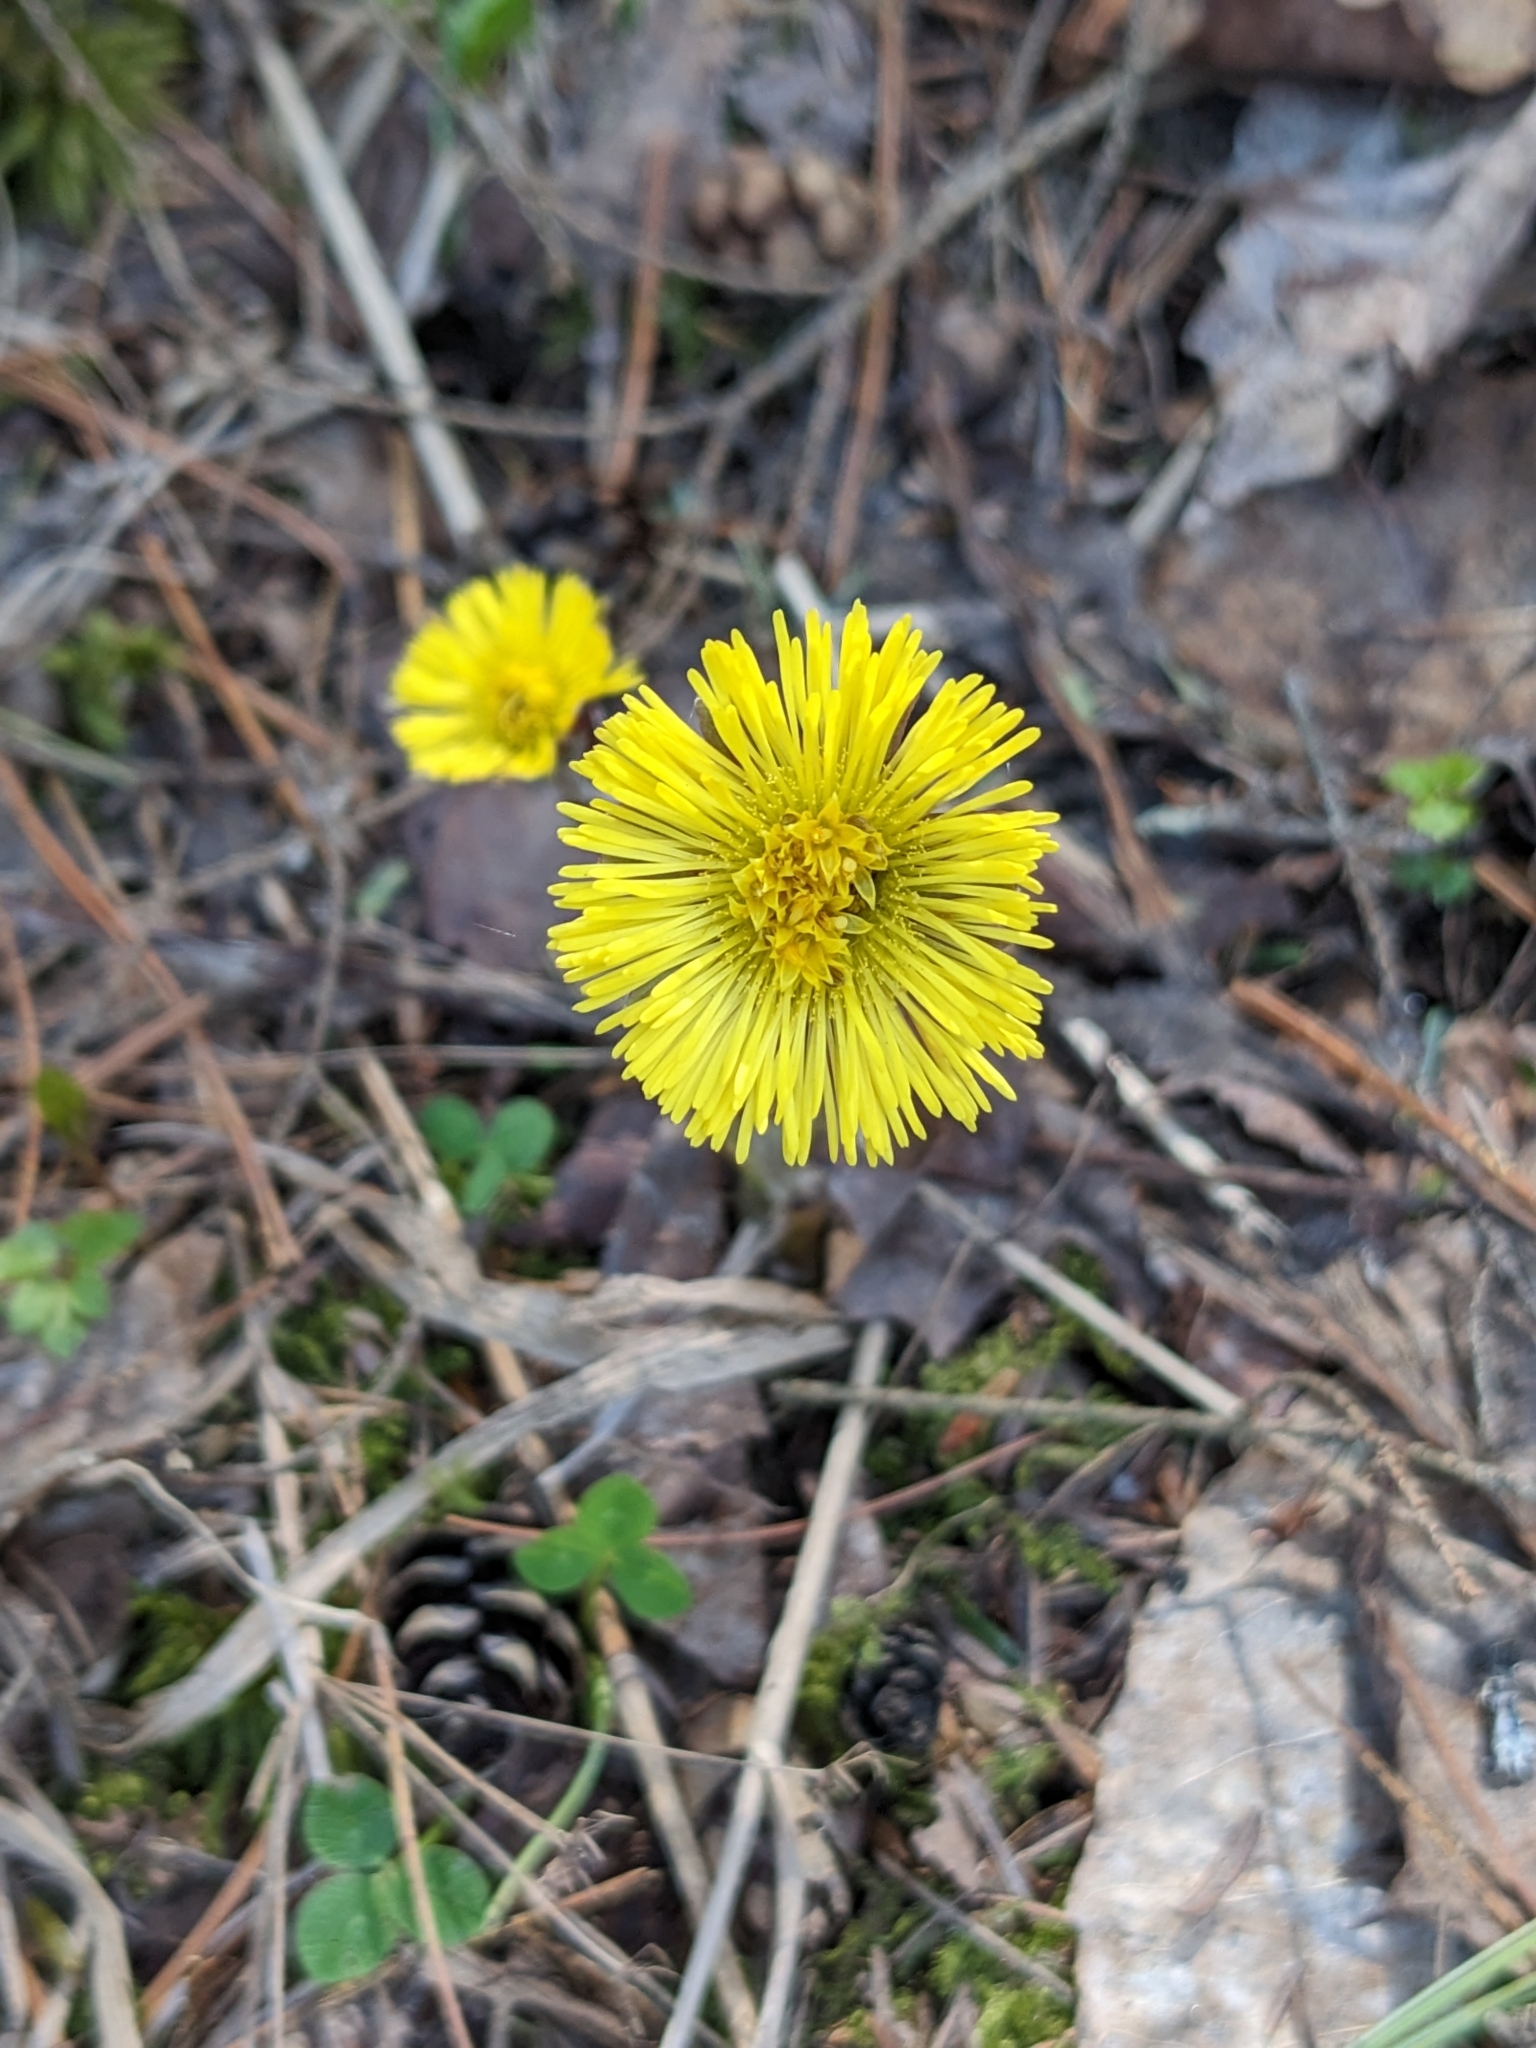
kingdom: Plantae
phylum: Tracheophyta
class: Magnoliopsida
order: Asterales
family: Asteraceae
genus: Tussilago
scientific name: Tussilago farfara
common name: Coltsfoot
